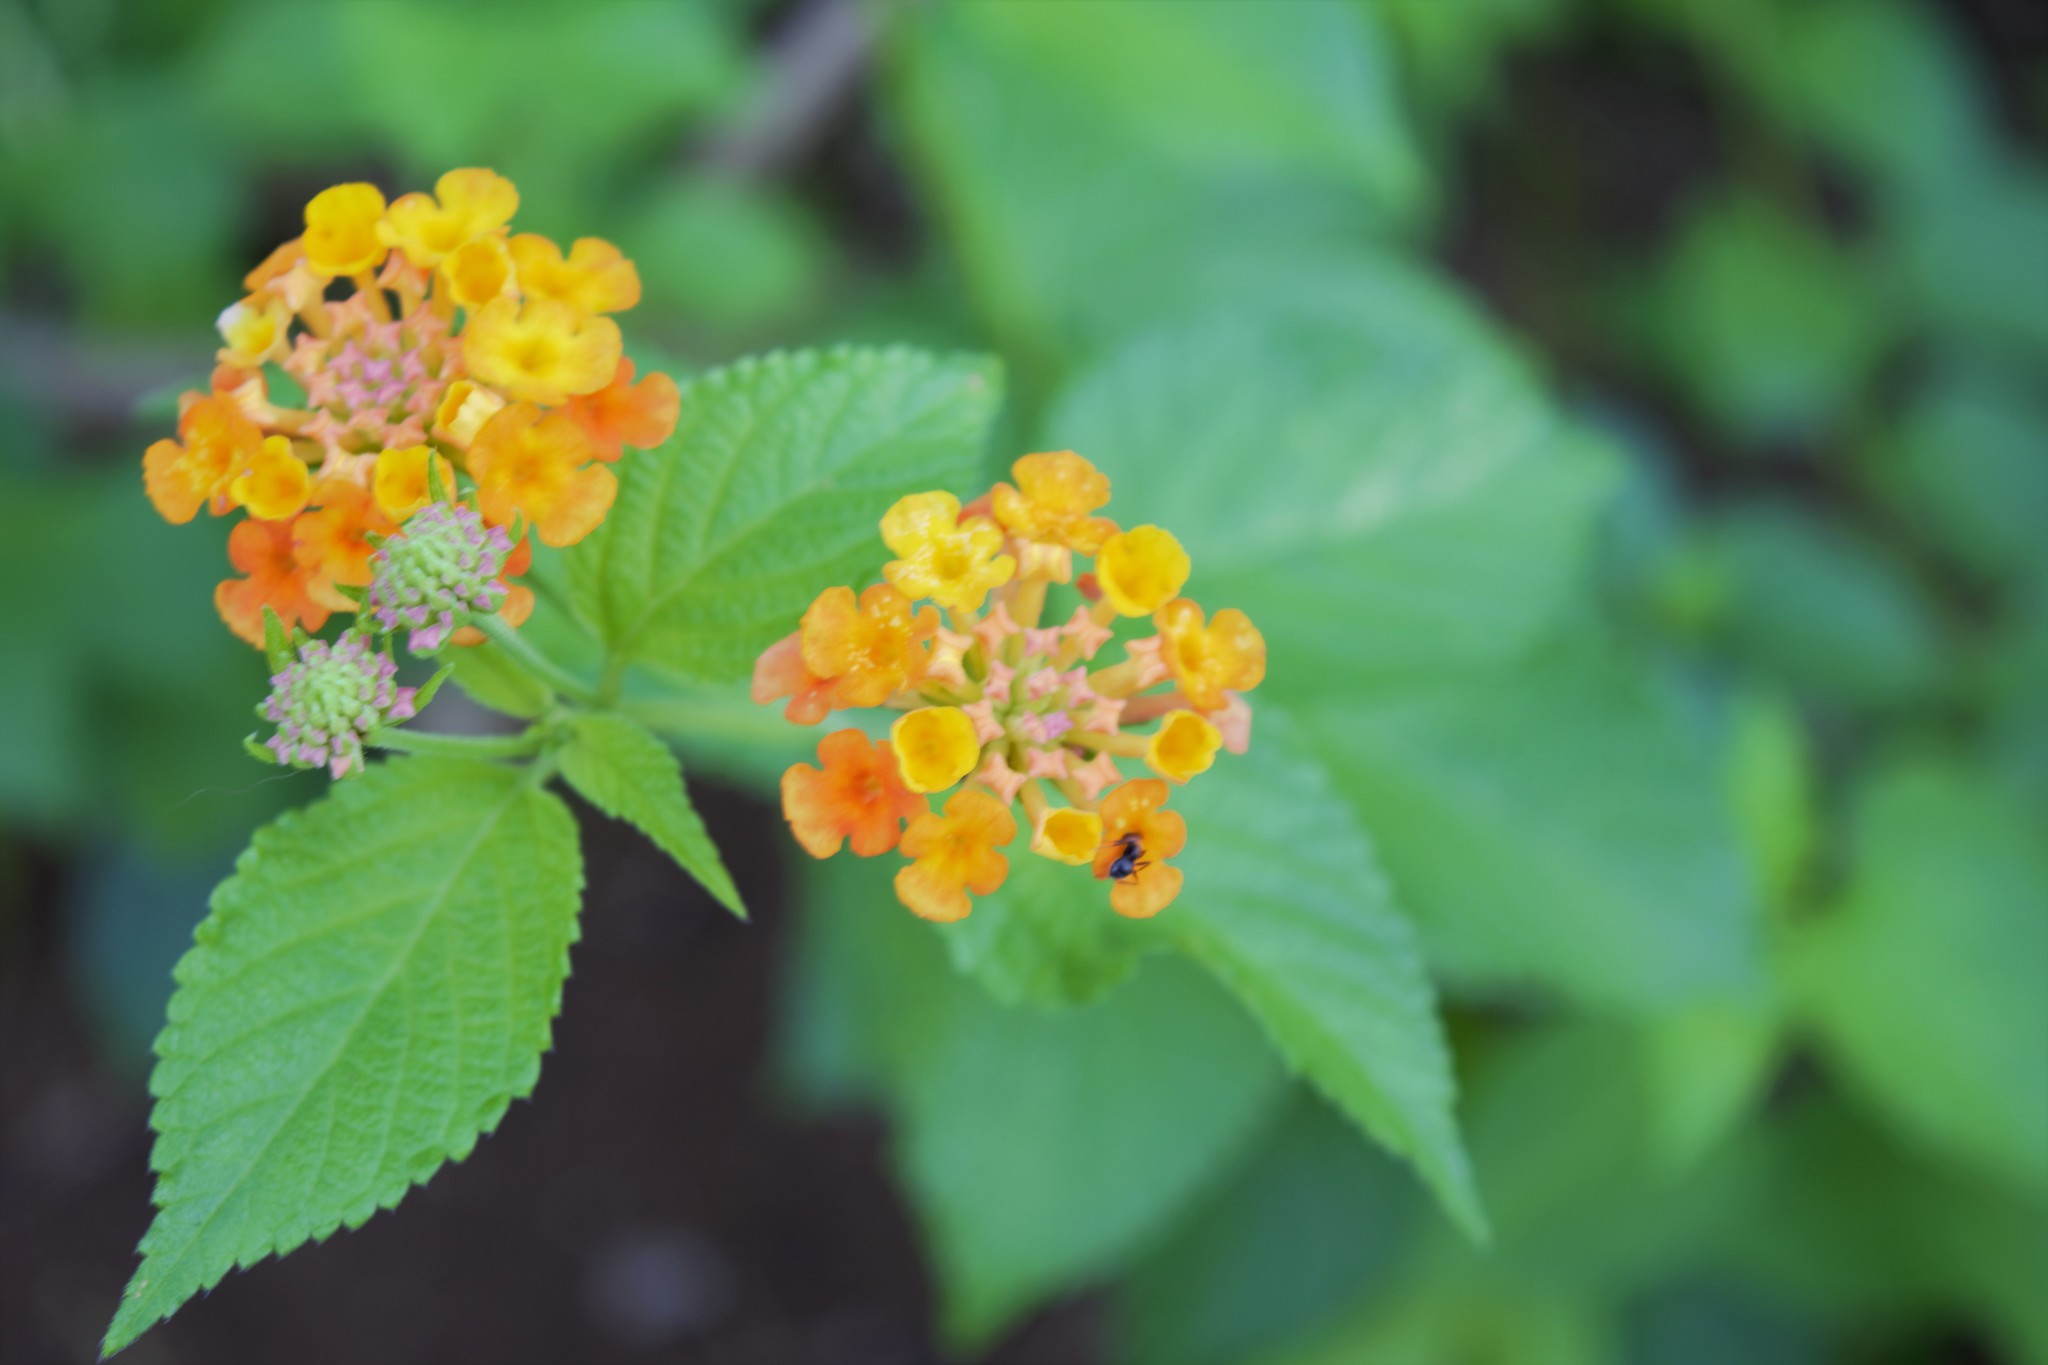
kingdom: Plantae
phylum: Tracheophyta
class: Magnoliopsida
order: Lamiales
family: Verbenaceae
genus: Lantana
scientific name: Lantana camara
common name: Lantana
